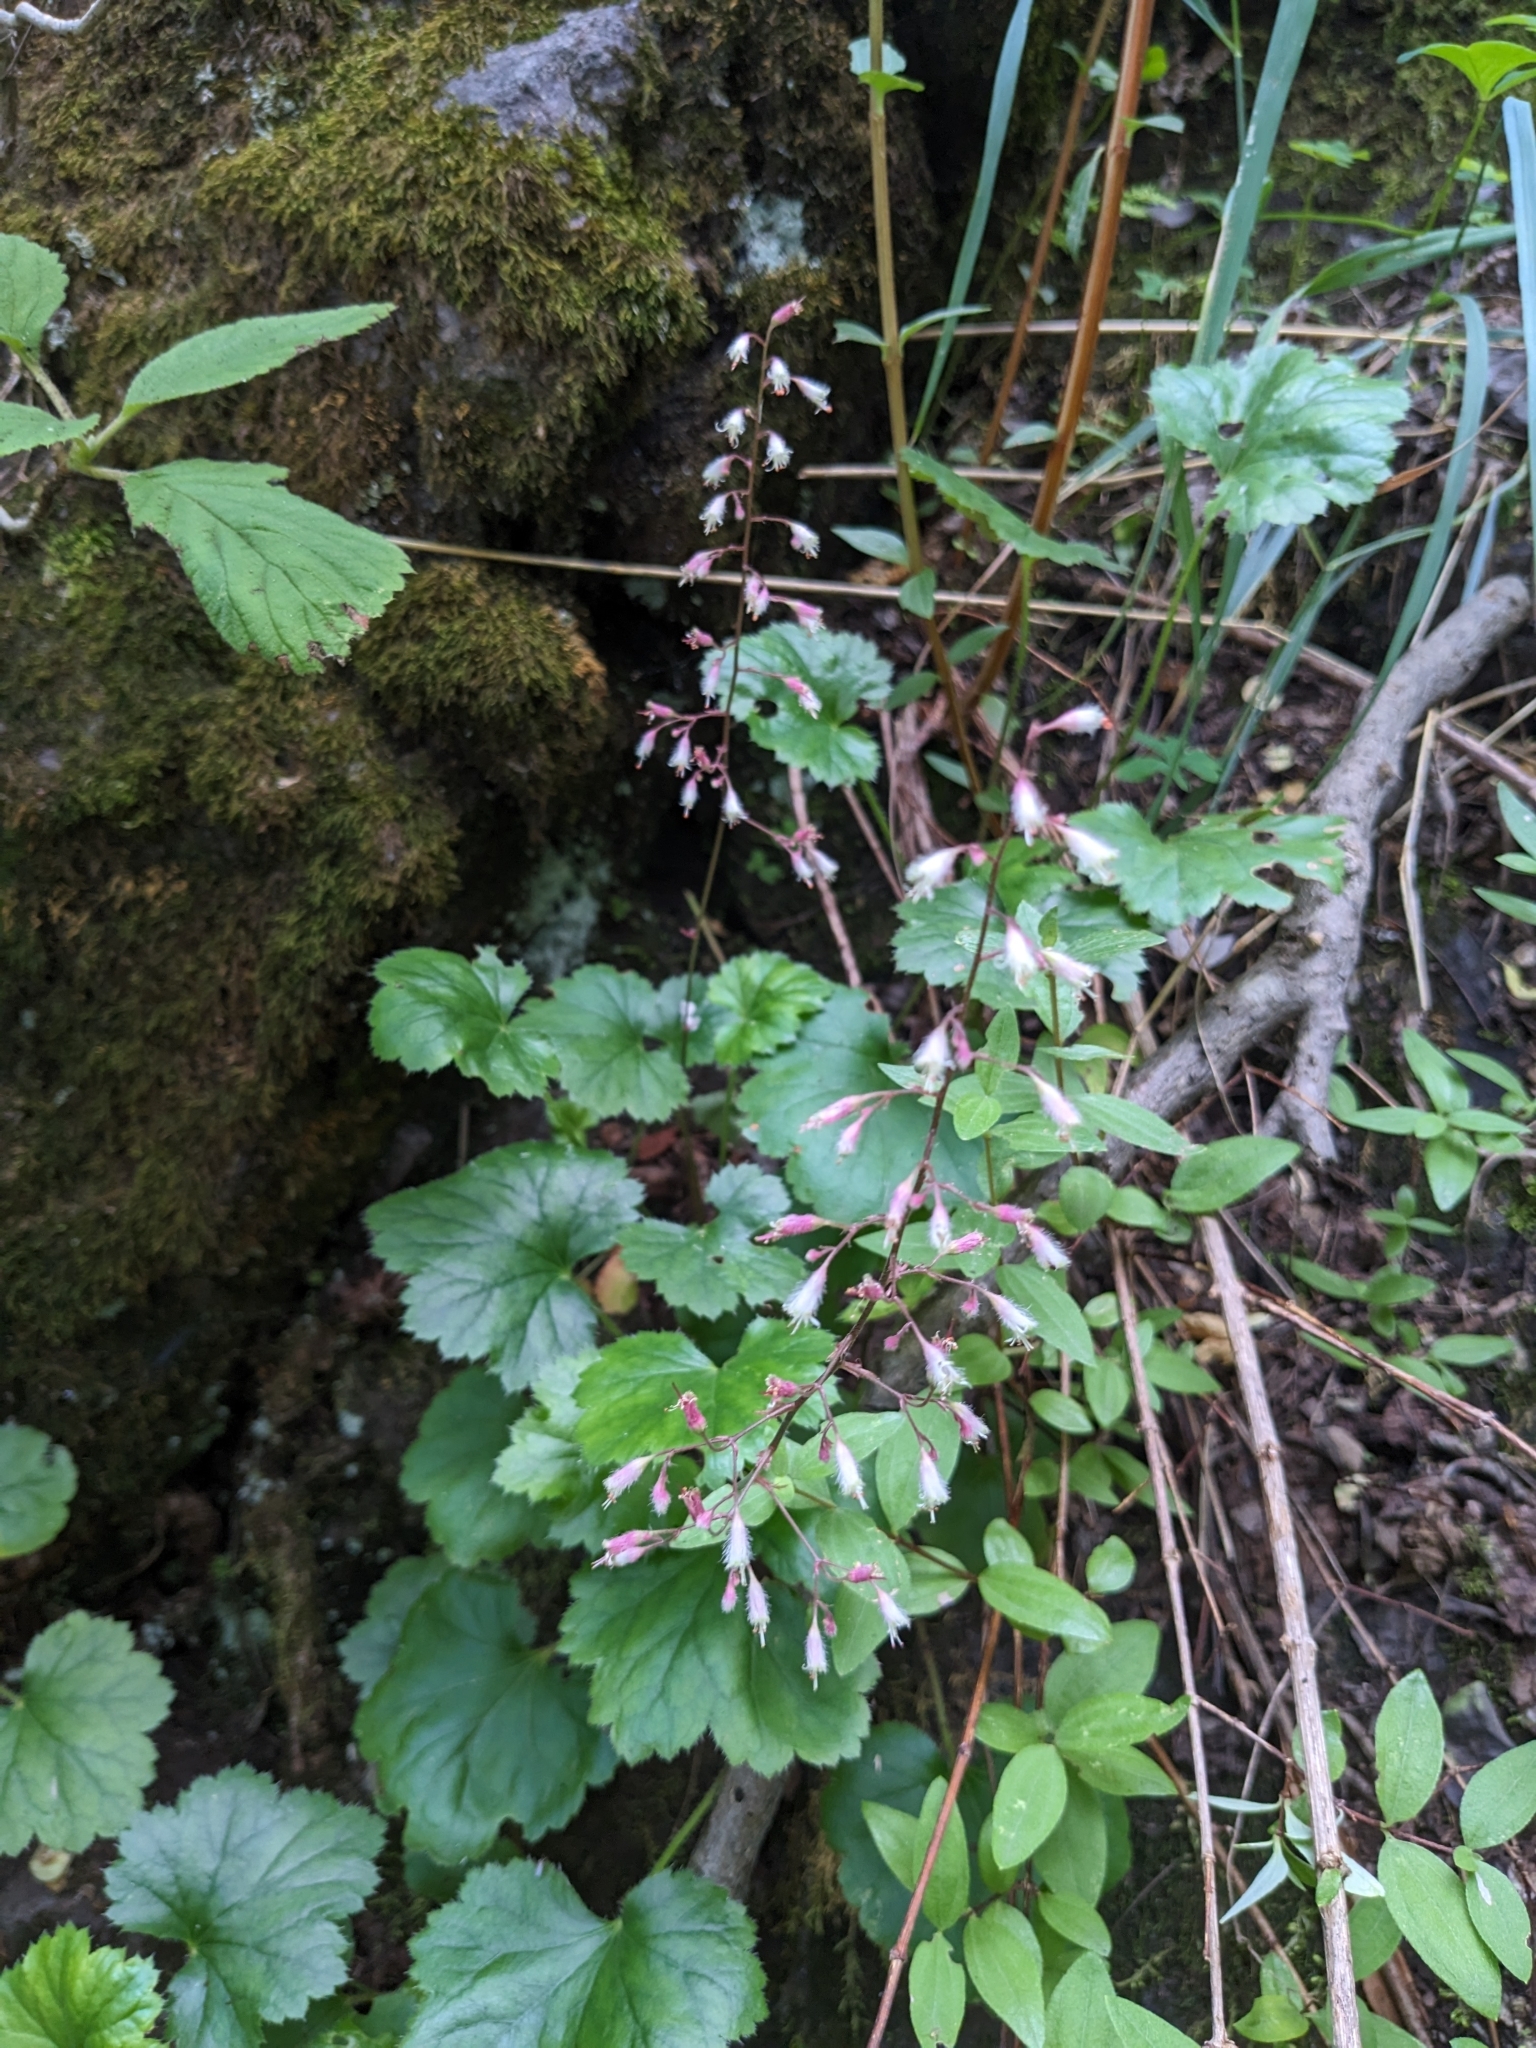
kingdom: Plantae
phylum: Tracheophyta
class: Magnoliopsida
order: Saxifragales
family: Saxifragaceae
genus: Heuchera
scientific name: Heuchera rubescens
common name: Jack-o'the-rocks
